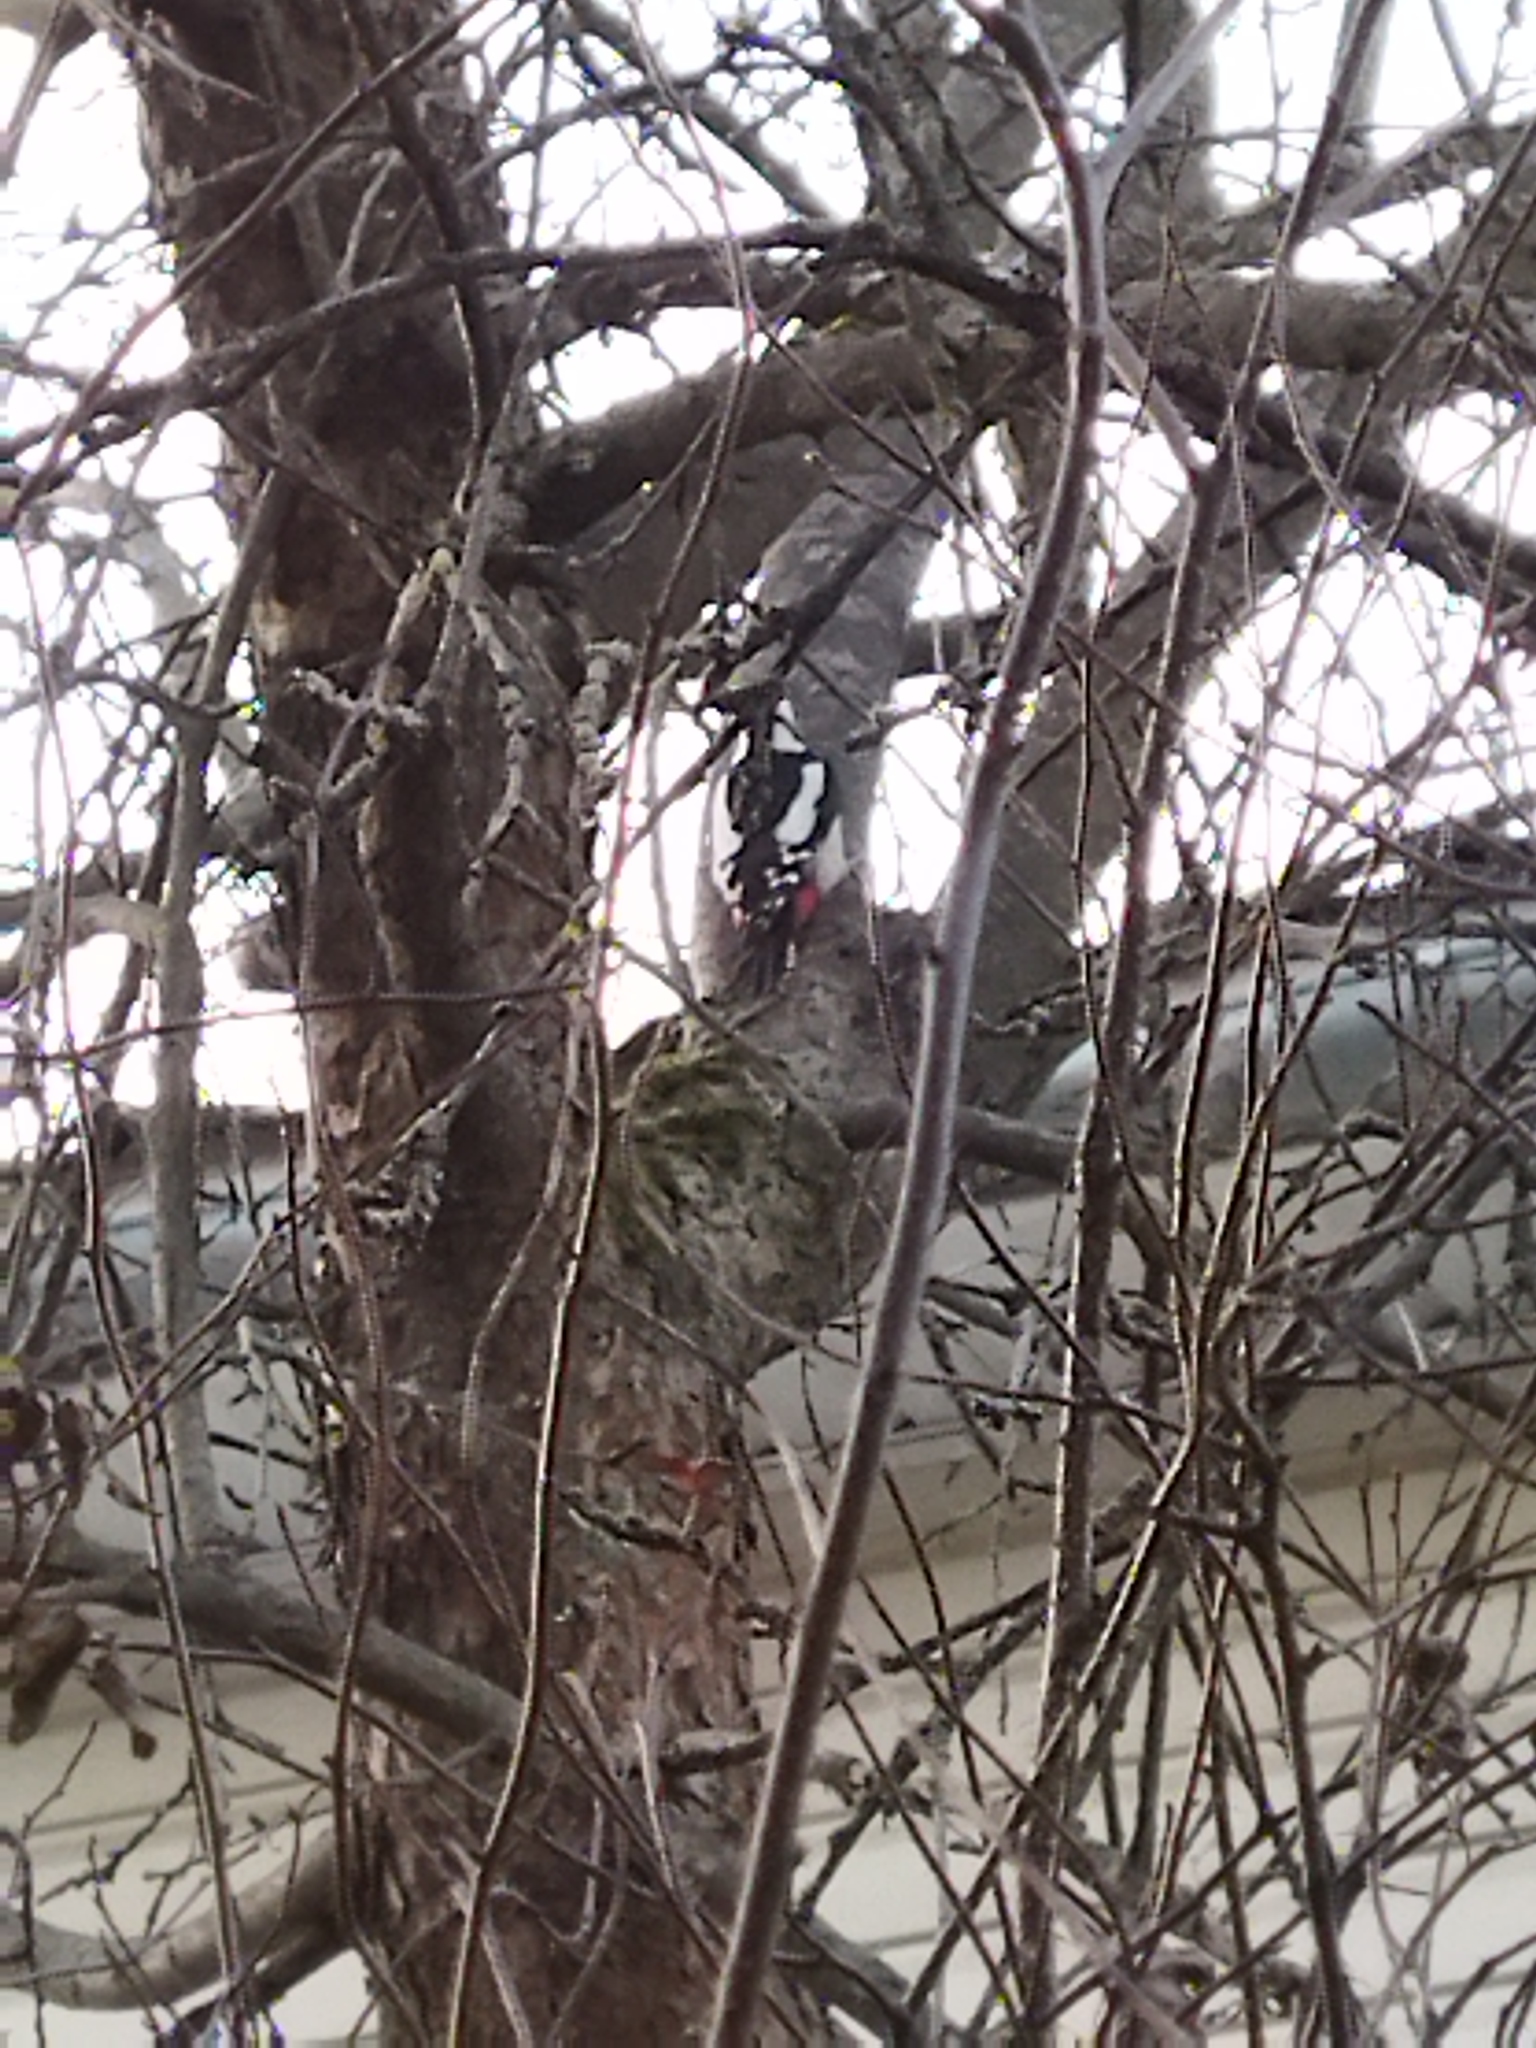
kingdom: Animalia
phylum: Chordata
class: Aves
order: Piciformes
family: Picidae
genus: Dendrocopos
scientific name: Dendrocopos major
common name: Great spotted woodpecker
